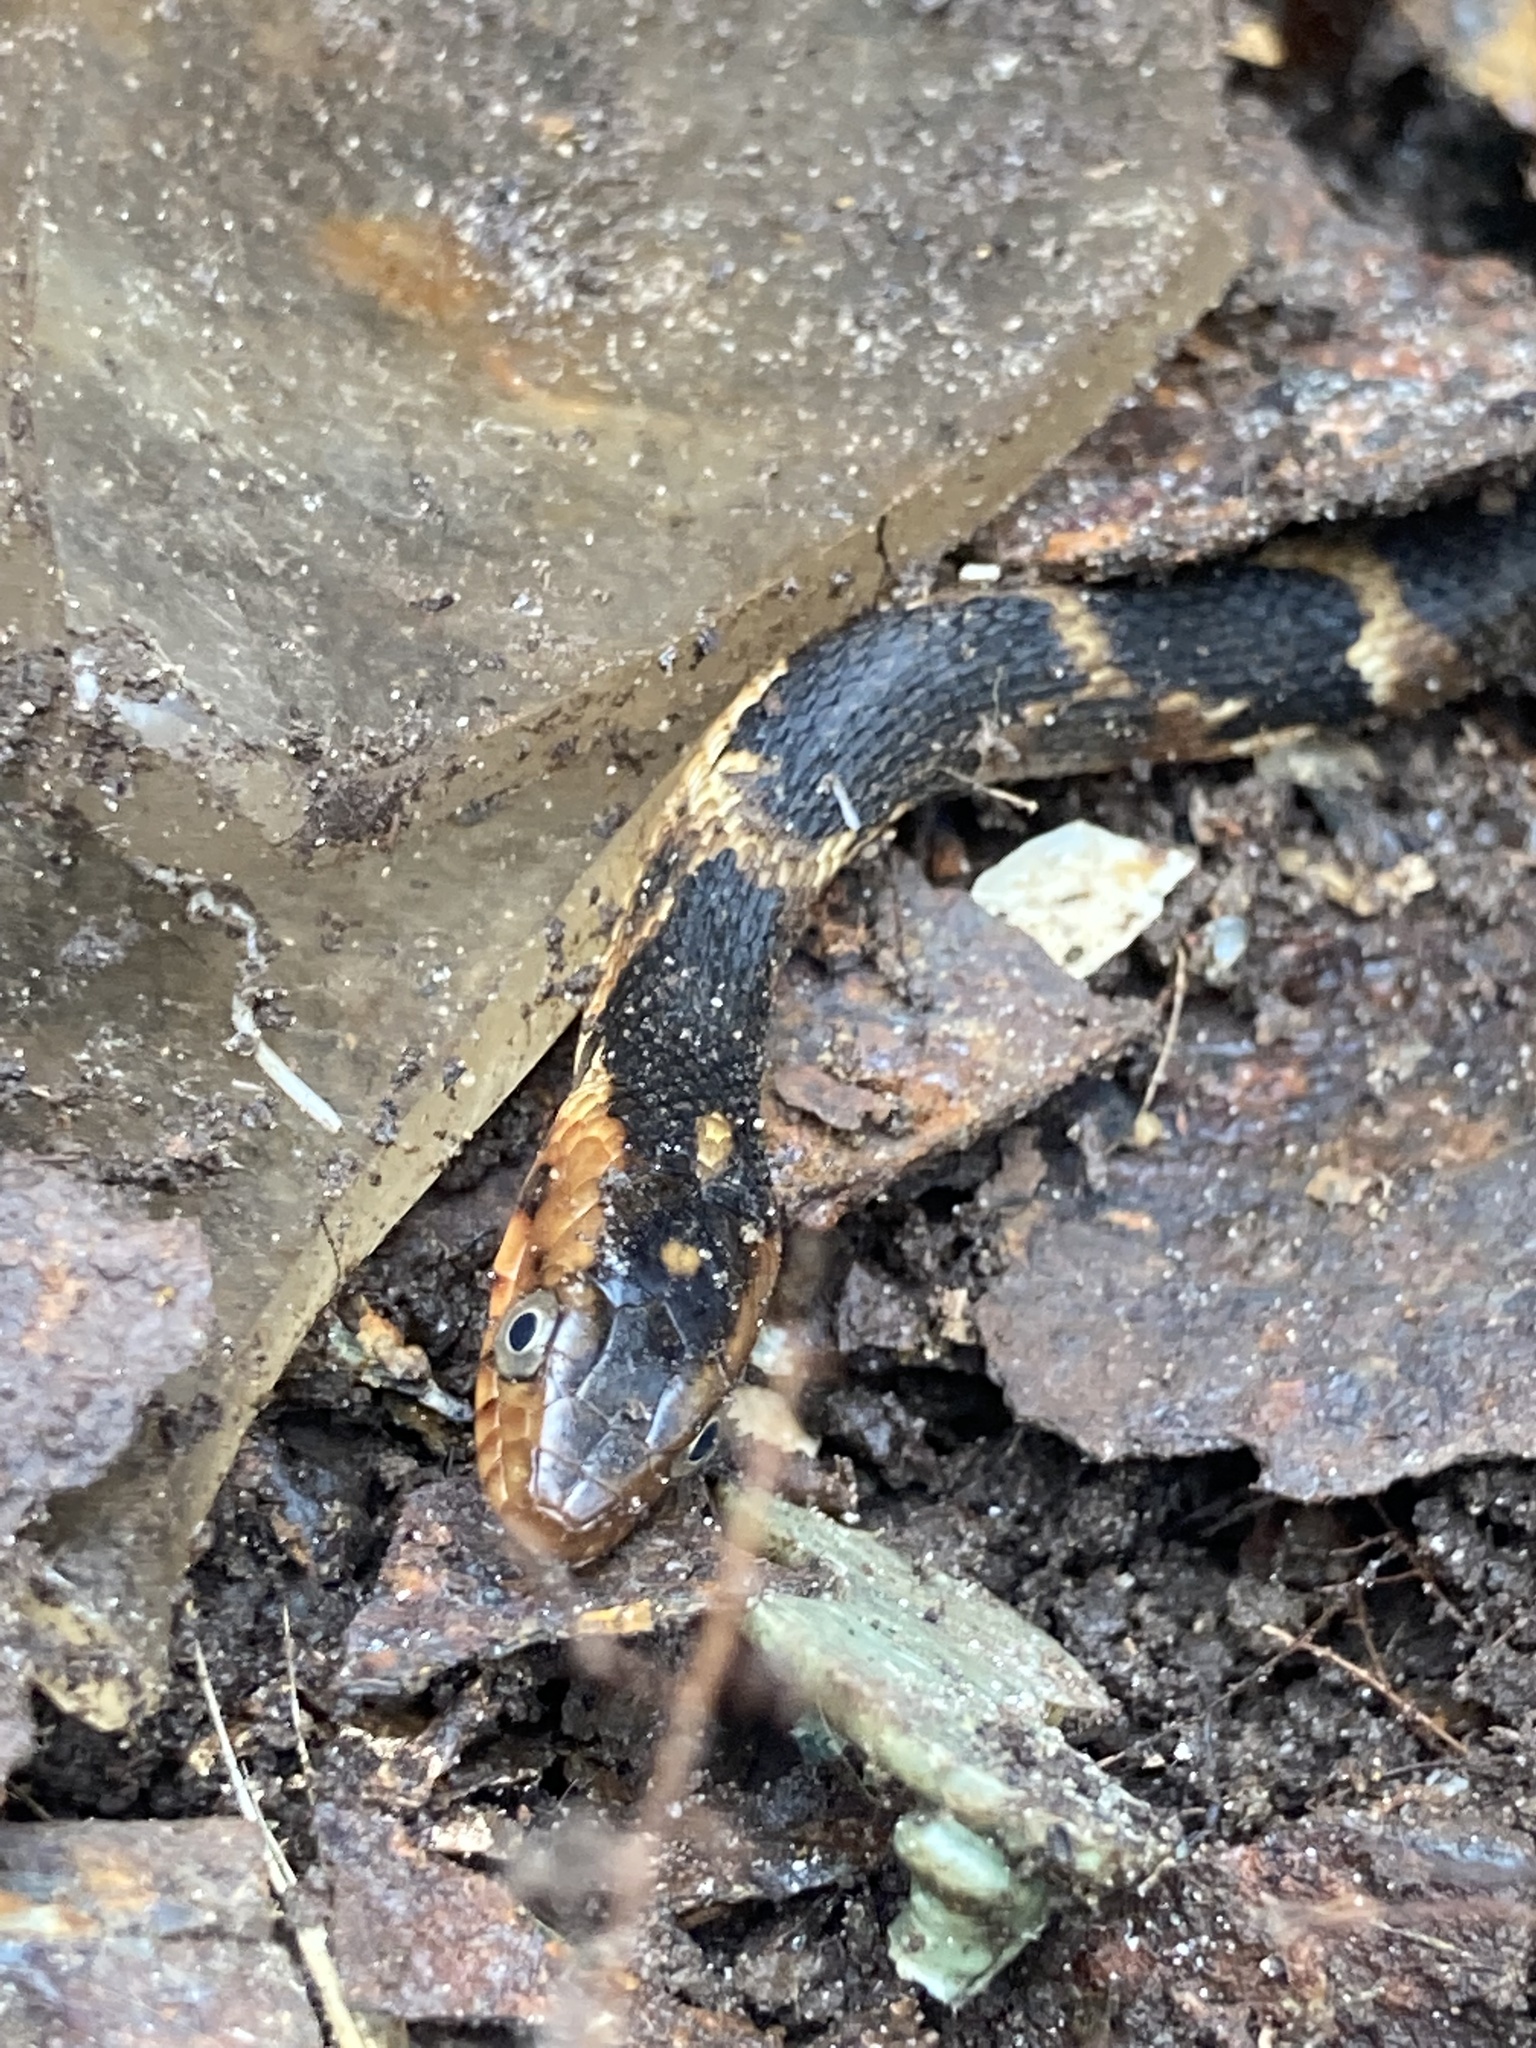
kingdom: Animalia
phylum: Chordata
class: Squamata
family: Colubridae
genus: Nerodia
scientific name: Nerodia fasciata
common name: Southern water snake
